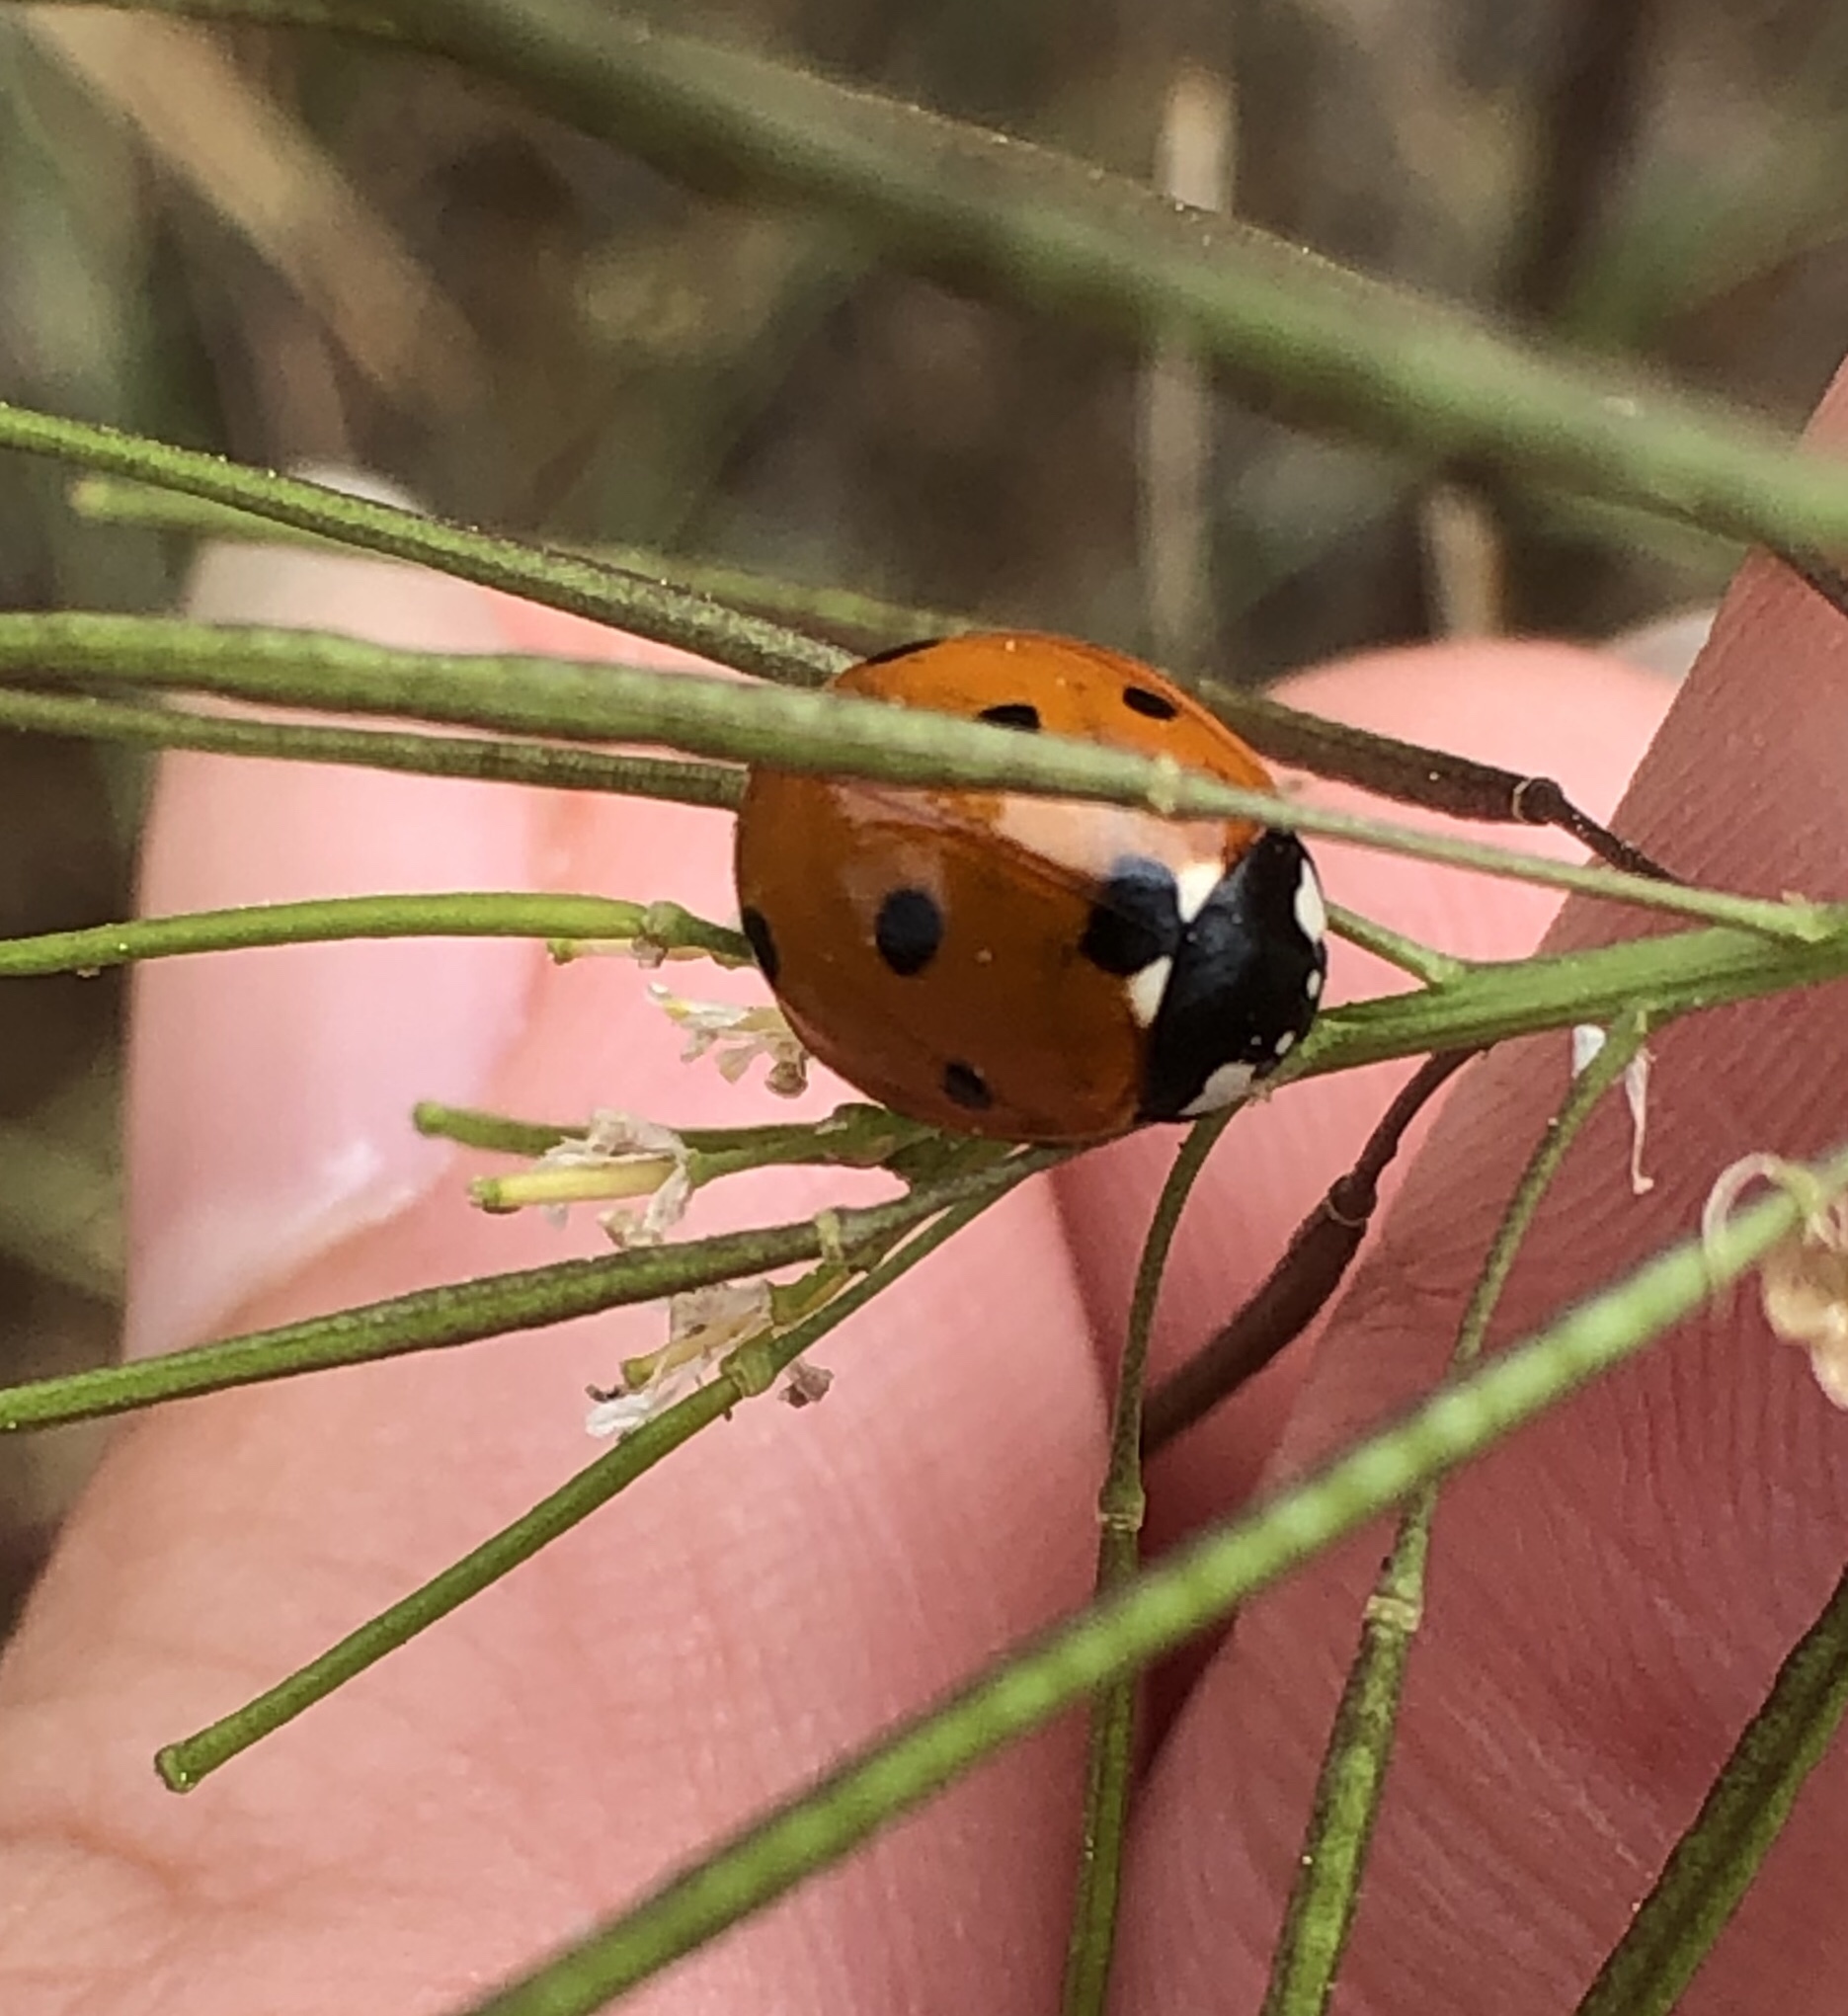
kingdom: Animalia
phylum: Arthropoda
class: Insecta
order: Coleoptera
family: Coccinellidae
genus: Coccinella
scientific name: Coccinella septempunctata
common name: Sevenspotted lady beetle
